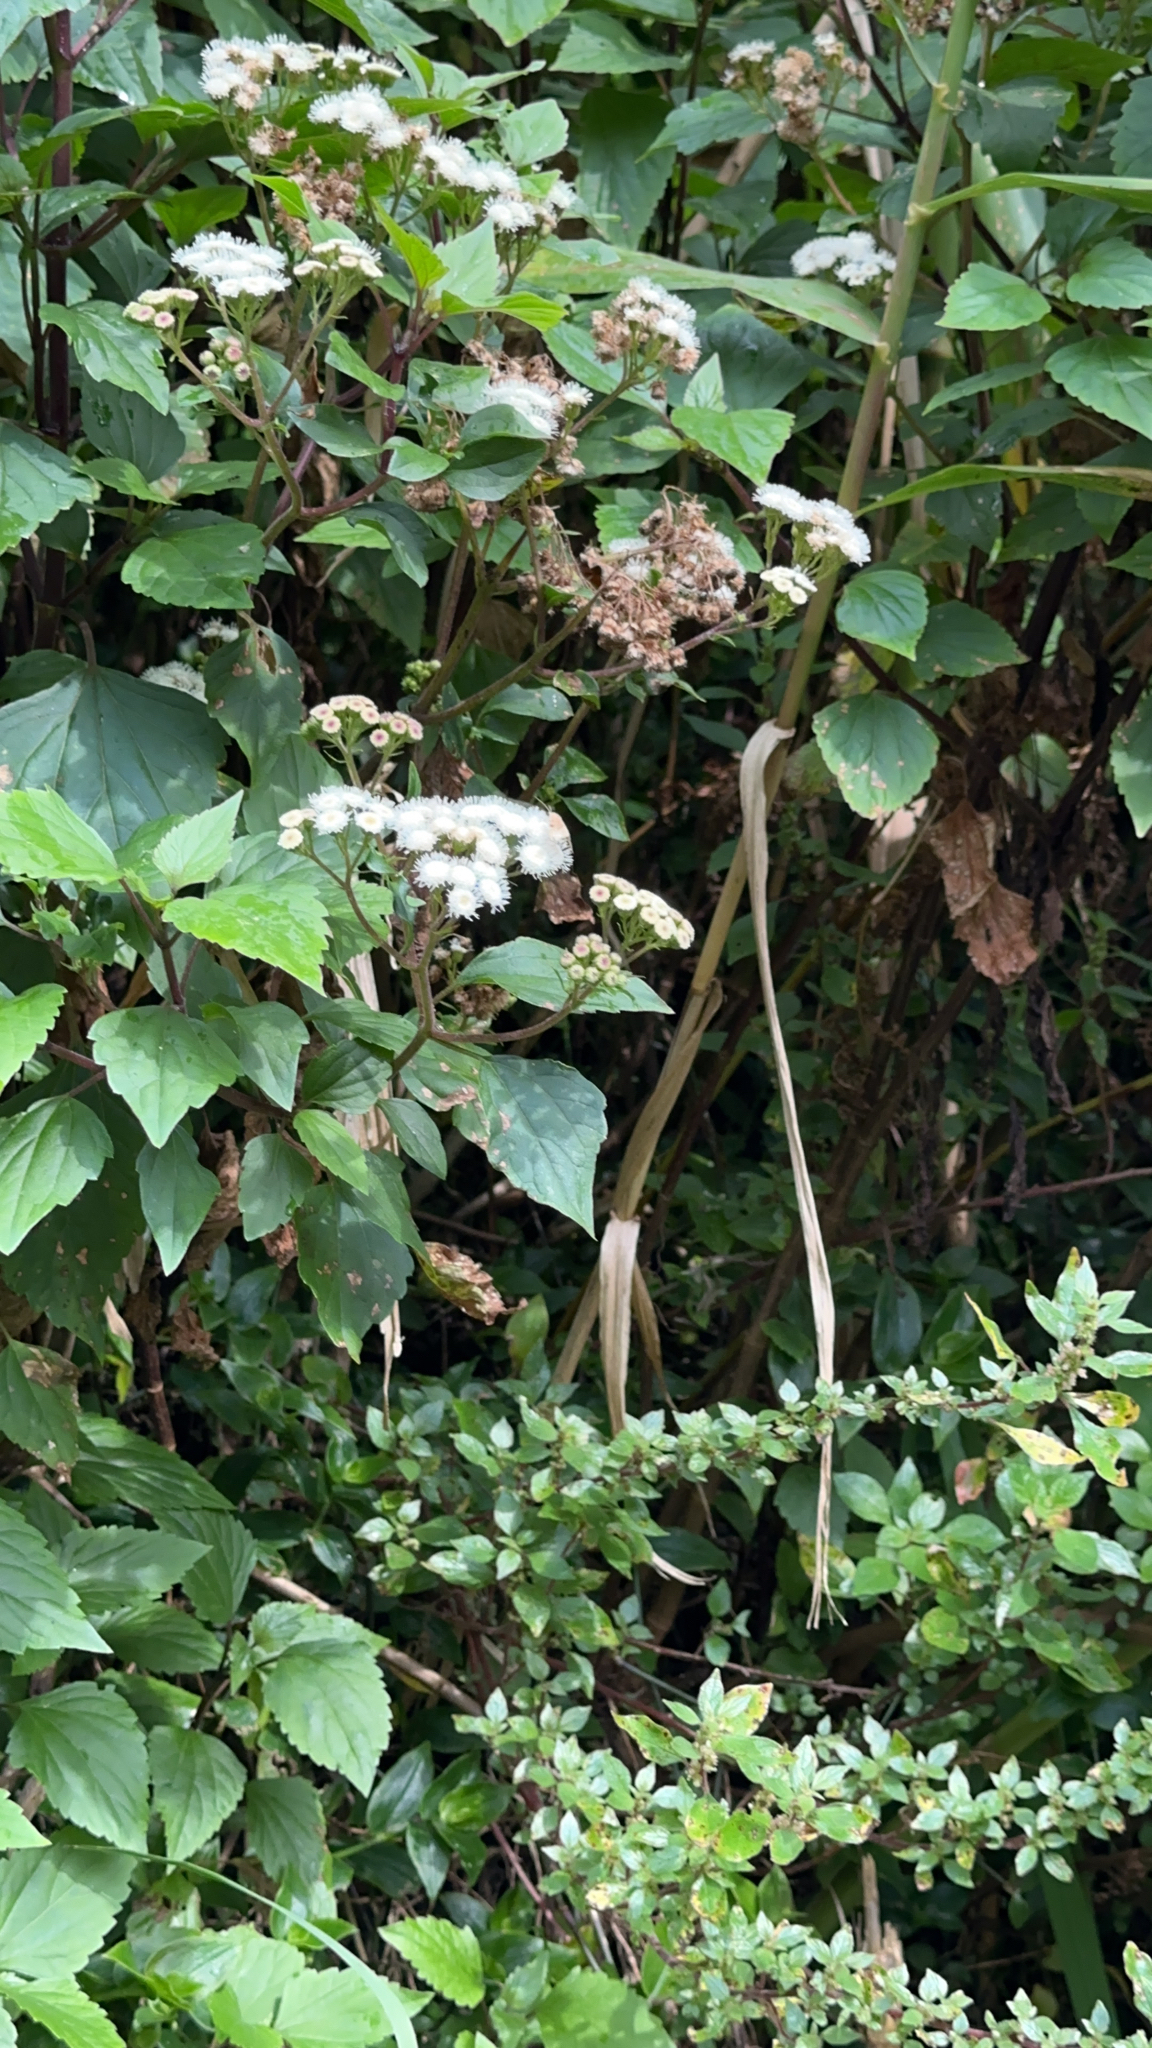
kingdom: Plantae
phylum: Tracheophyta
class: Magnoliopsida
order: Asterales
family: Asteraceae
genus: Ageratina
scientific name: Ageratina adenophora
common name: Sticky snakeroot
